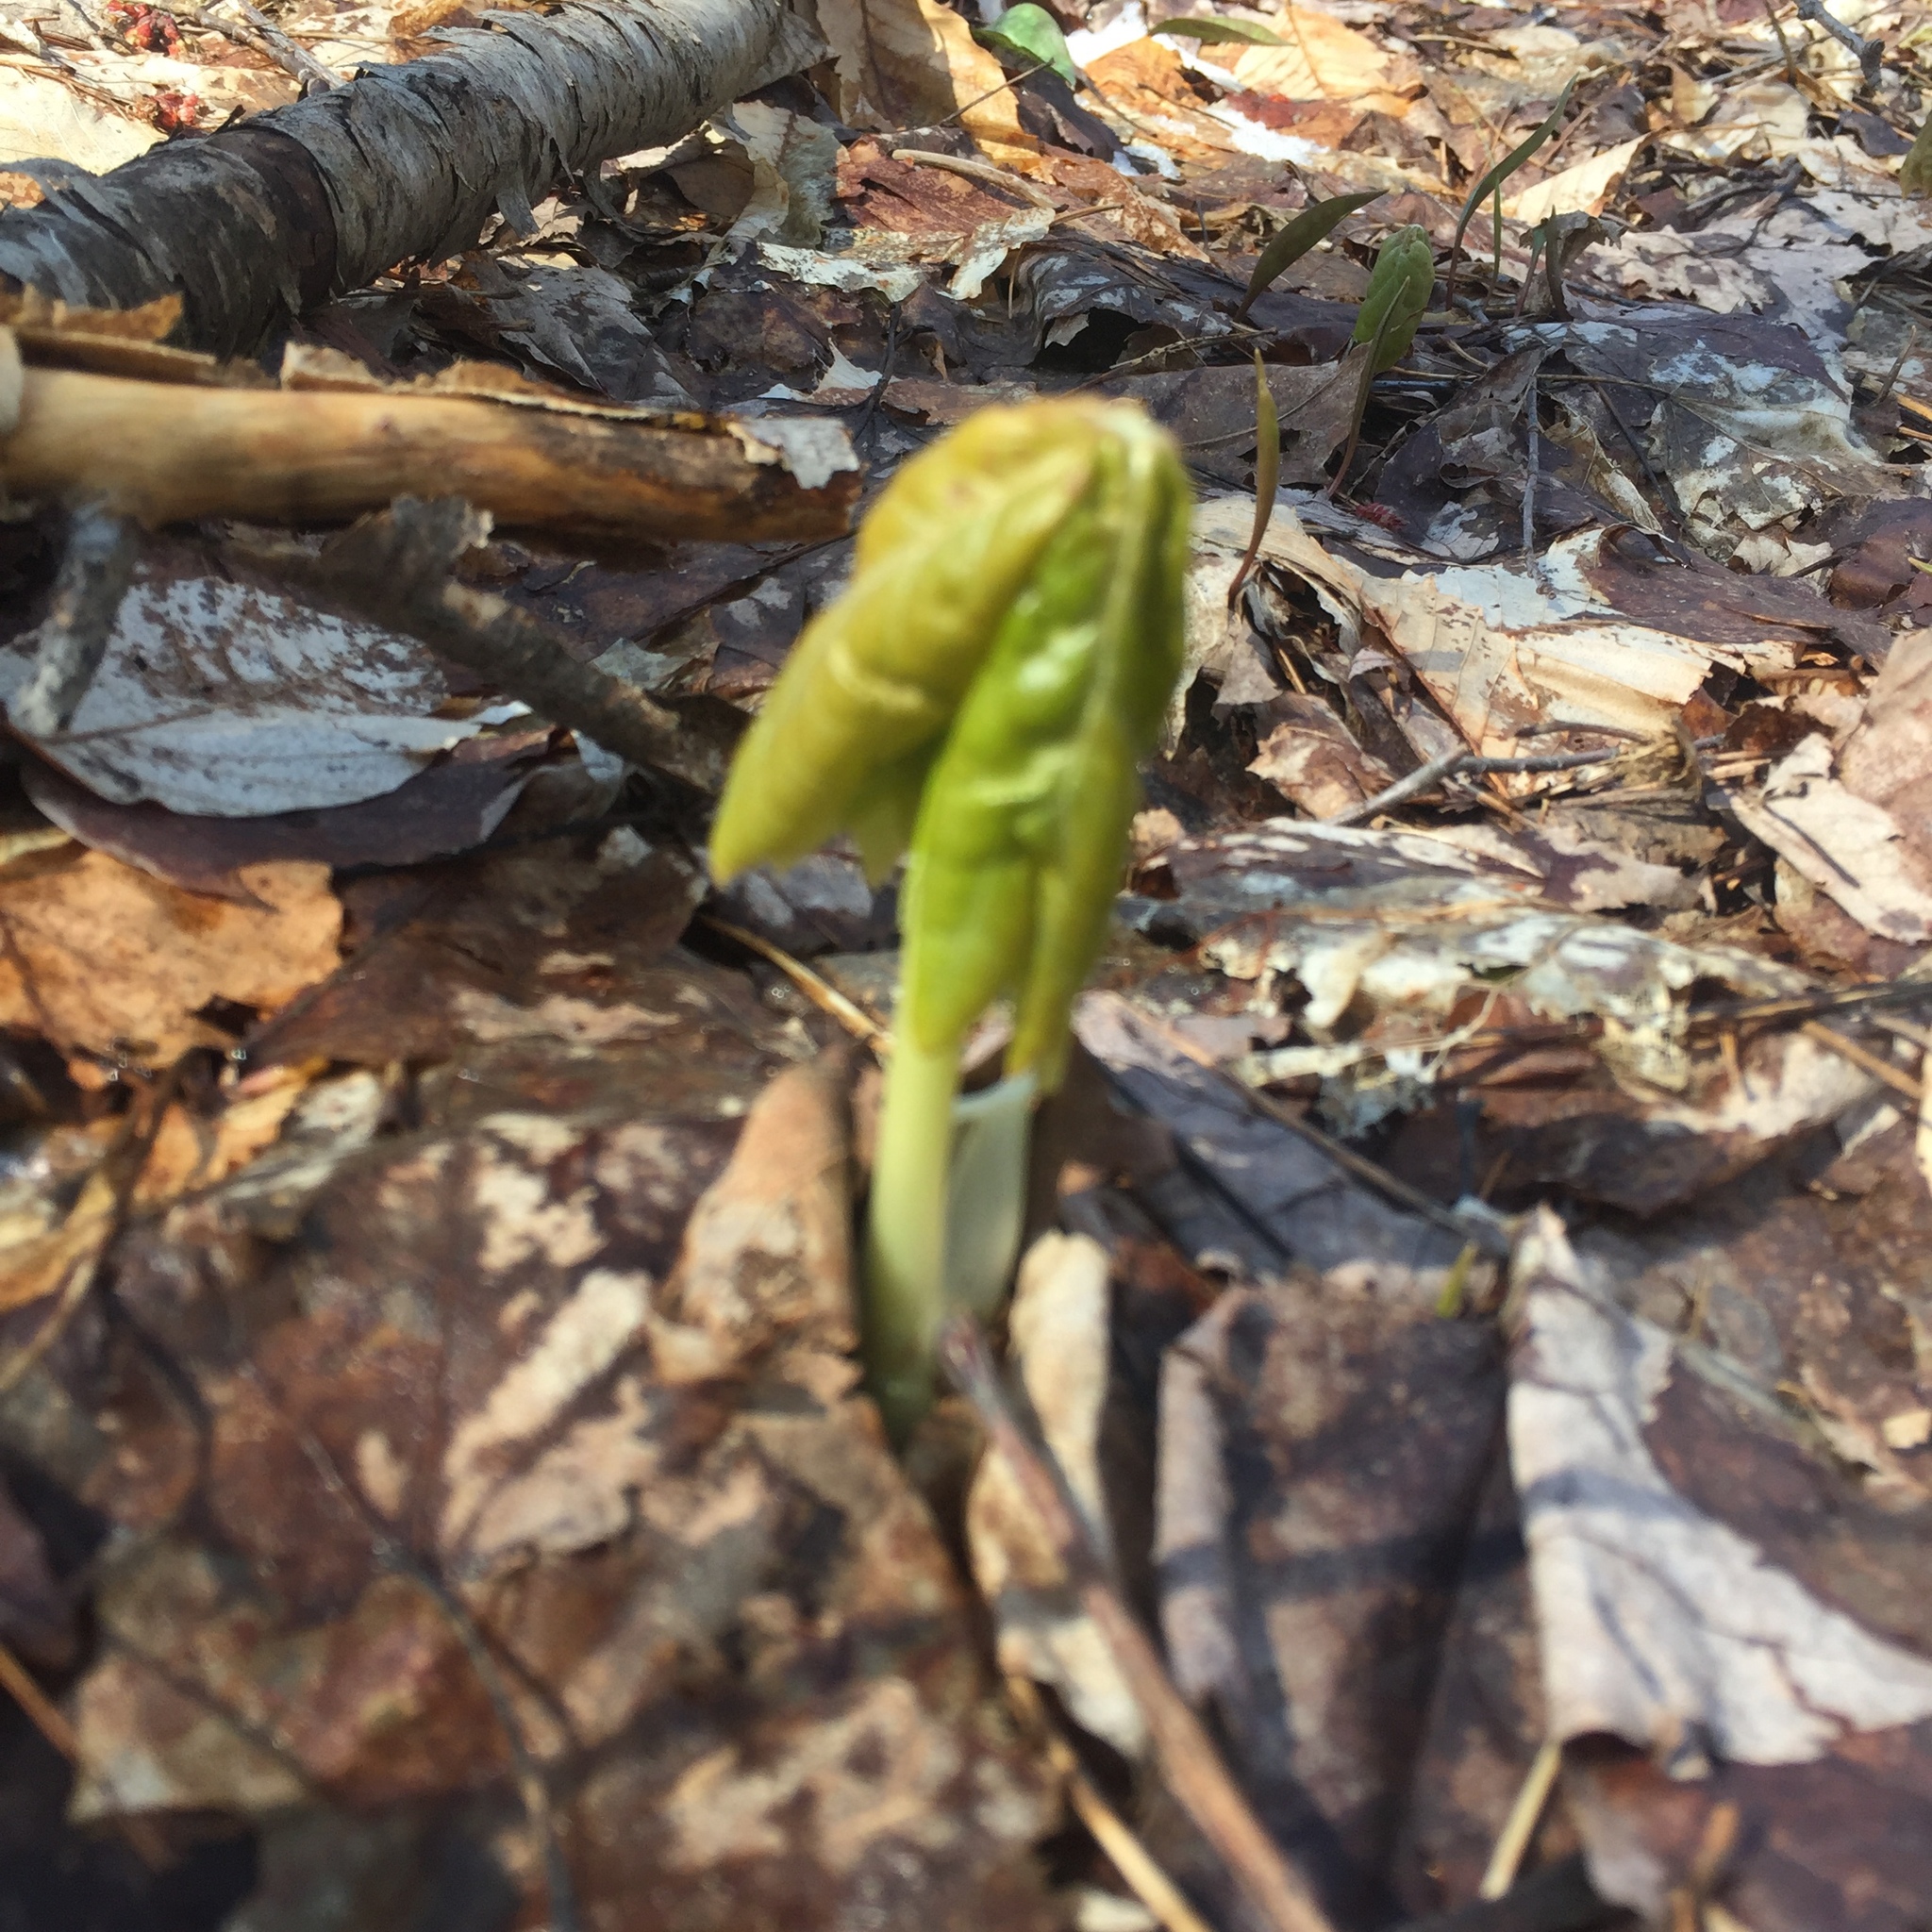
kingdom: Plantae
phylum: Tracheophyta
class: Magnoliopsida
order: Ranunculales
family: Berberidaceae
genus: Podophyllum
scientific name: Podophyllum peltatum
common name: Wild mandrake
